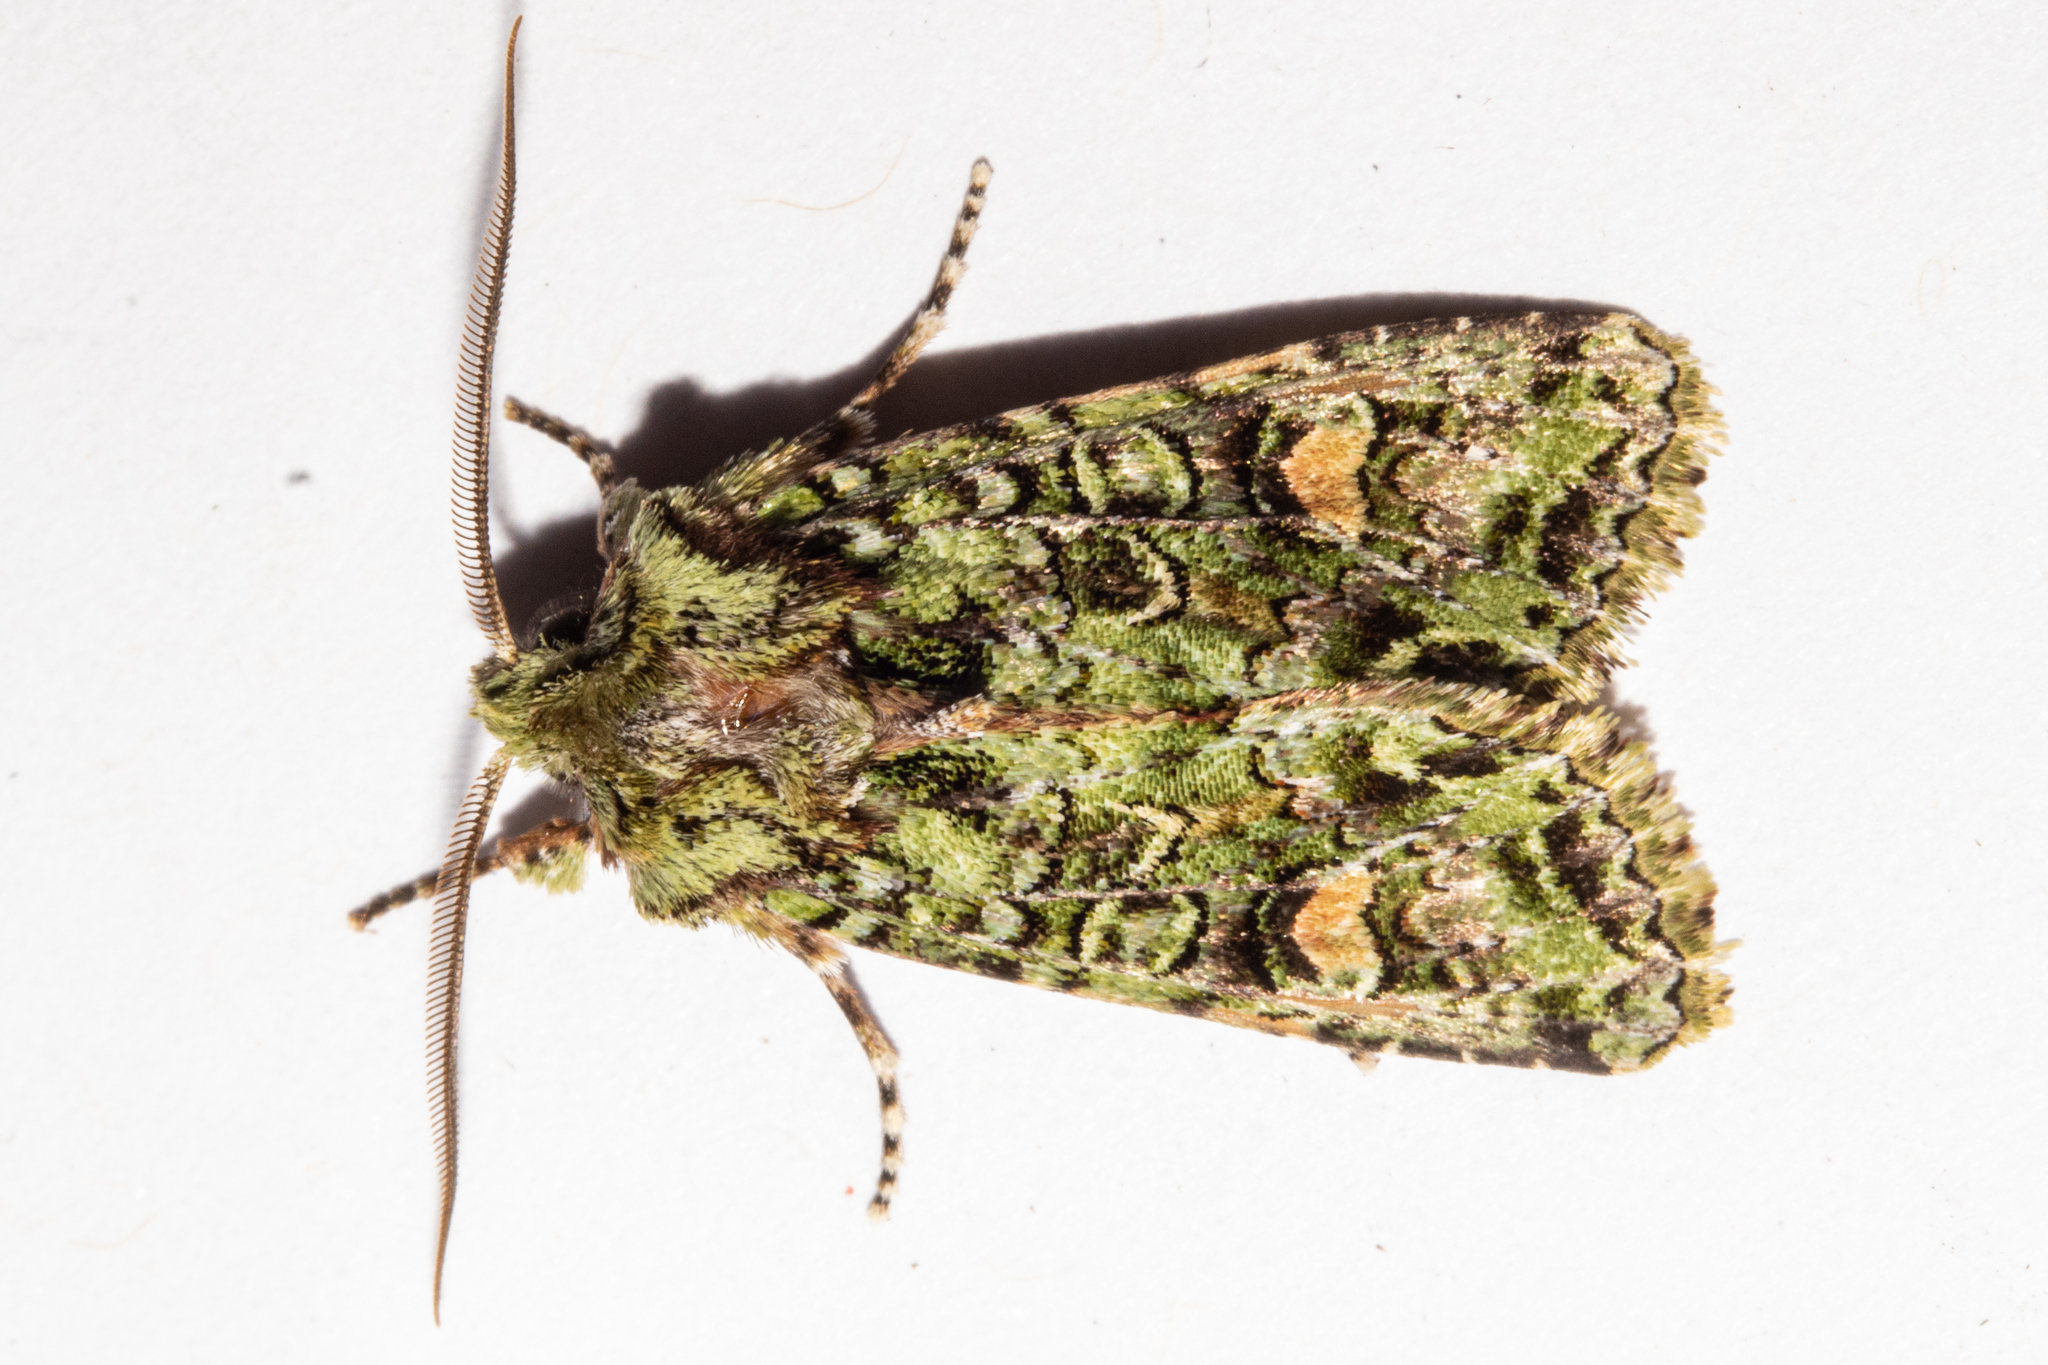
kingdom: Animalia
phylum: Arthropoda
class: Insecta
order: Lepidoptera
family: Noctuidae
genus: Ichneutica
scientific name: Ichneutica
